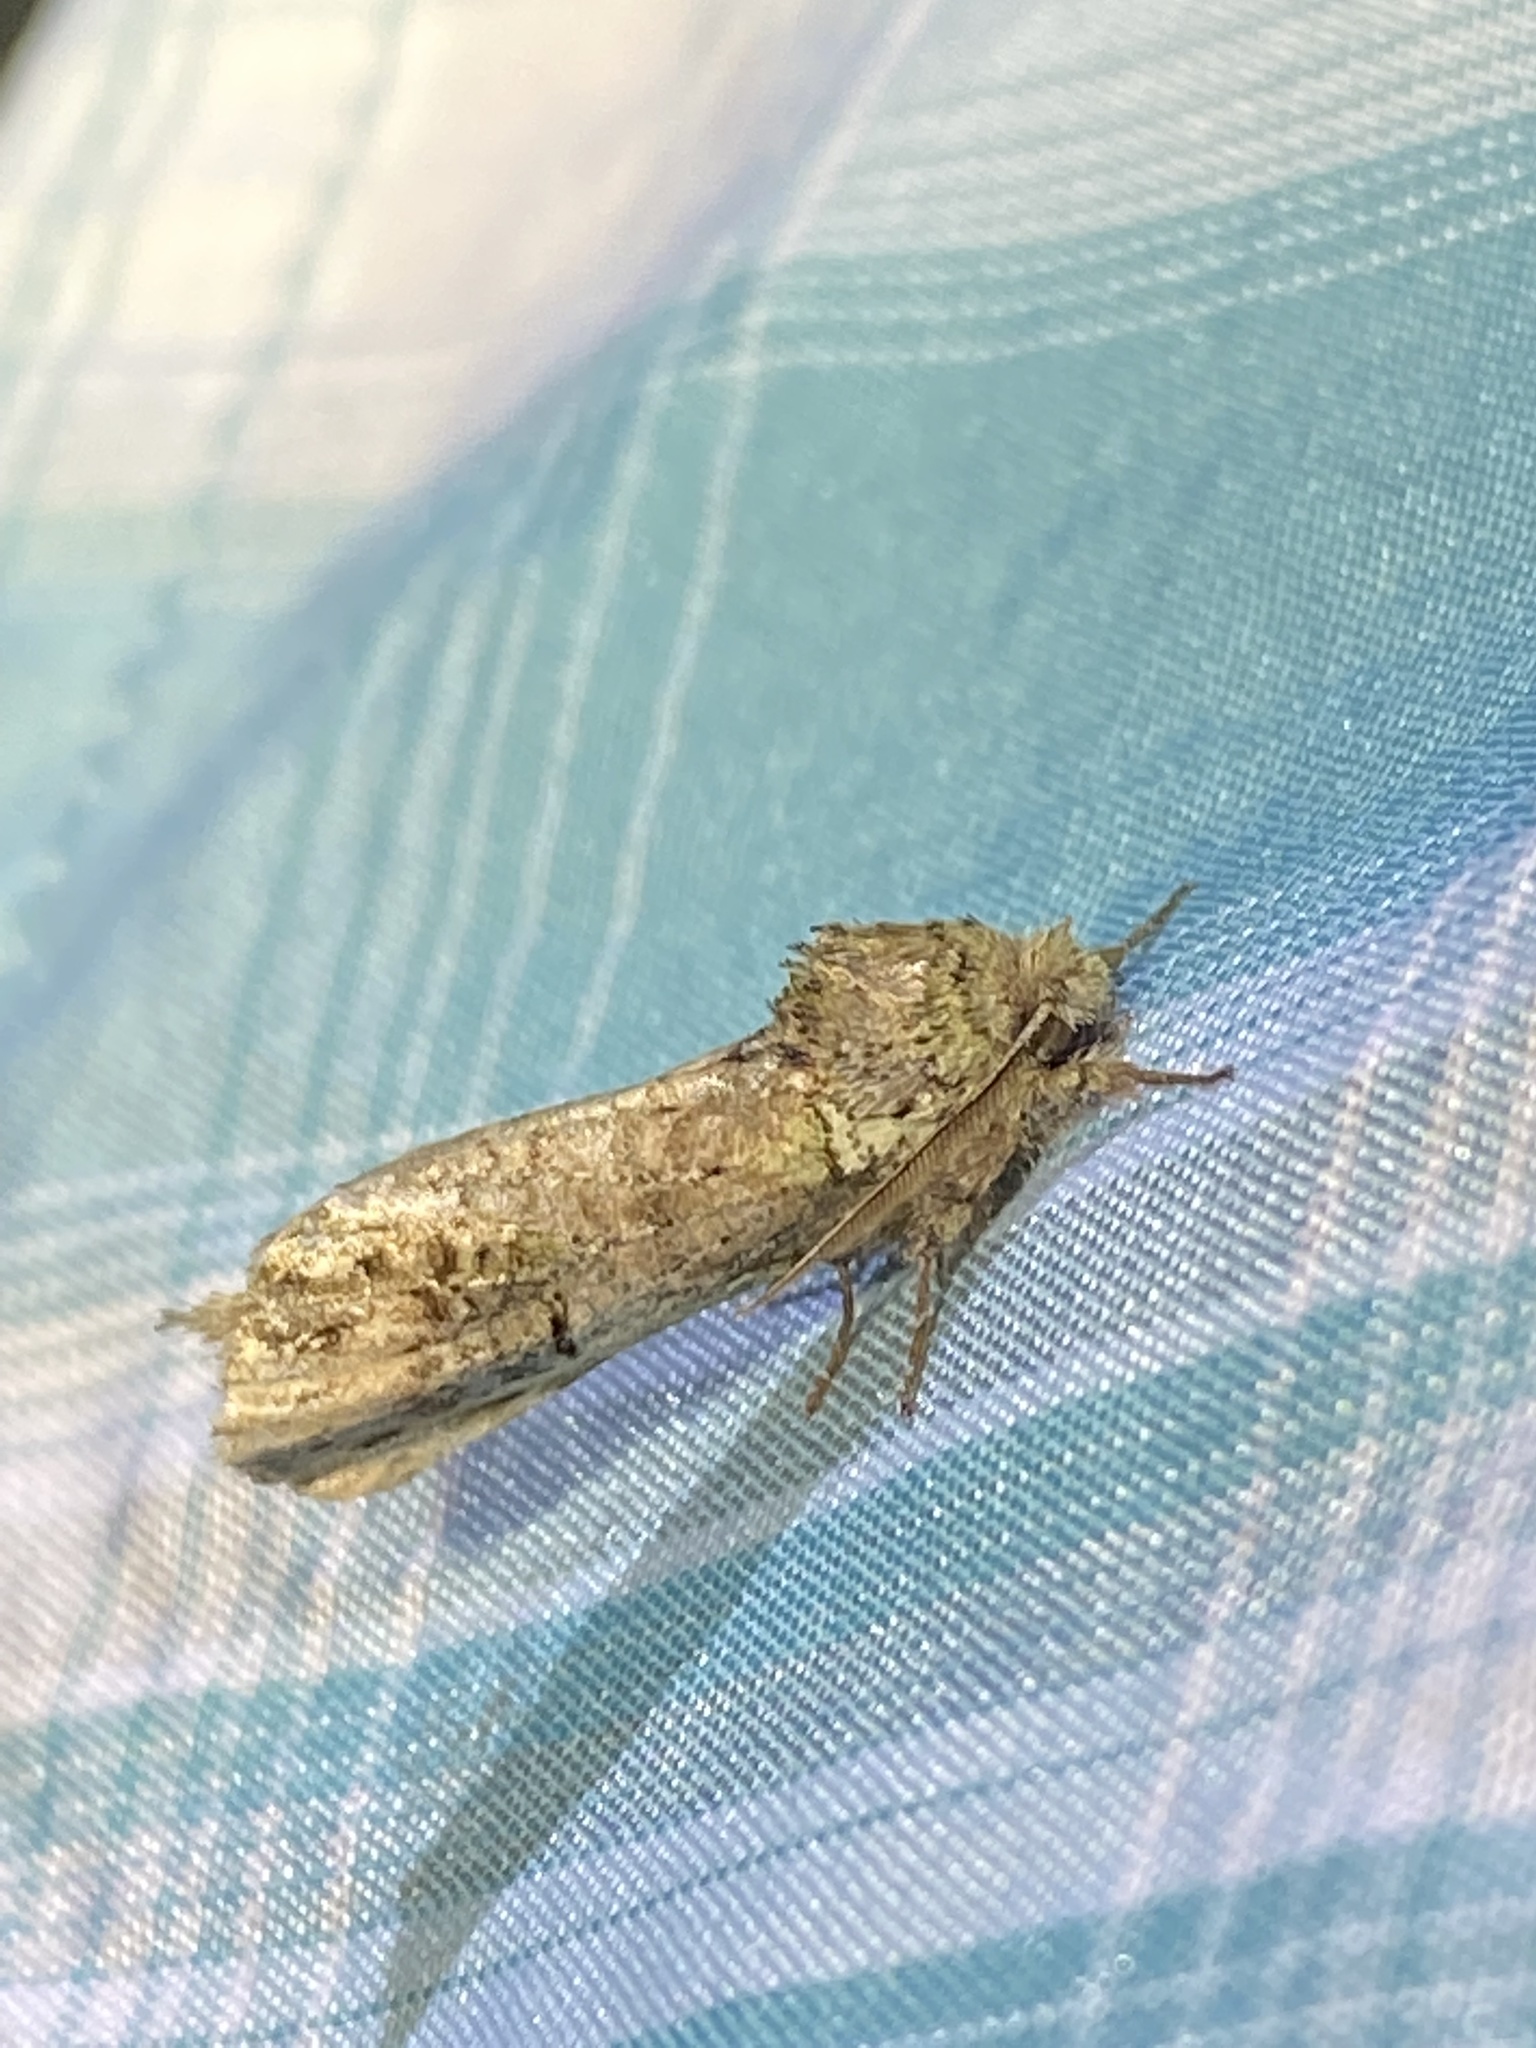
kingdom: Animalia
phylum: Arthropoda
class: Insecta
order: Lepidoptera
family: Notodontidae
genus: Schizura
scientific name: Schizura
